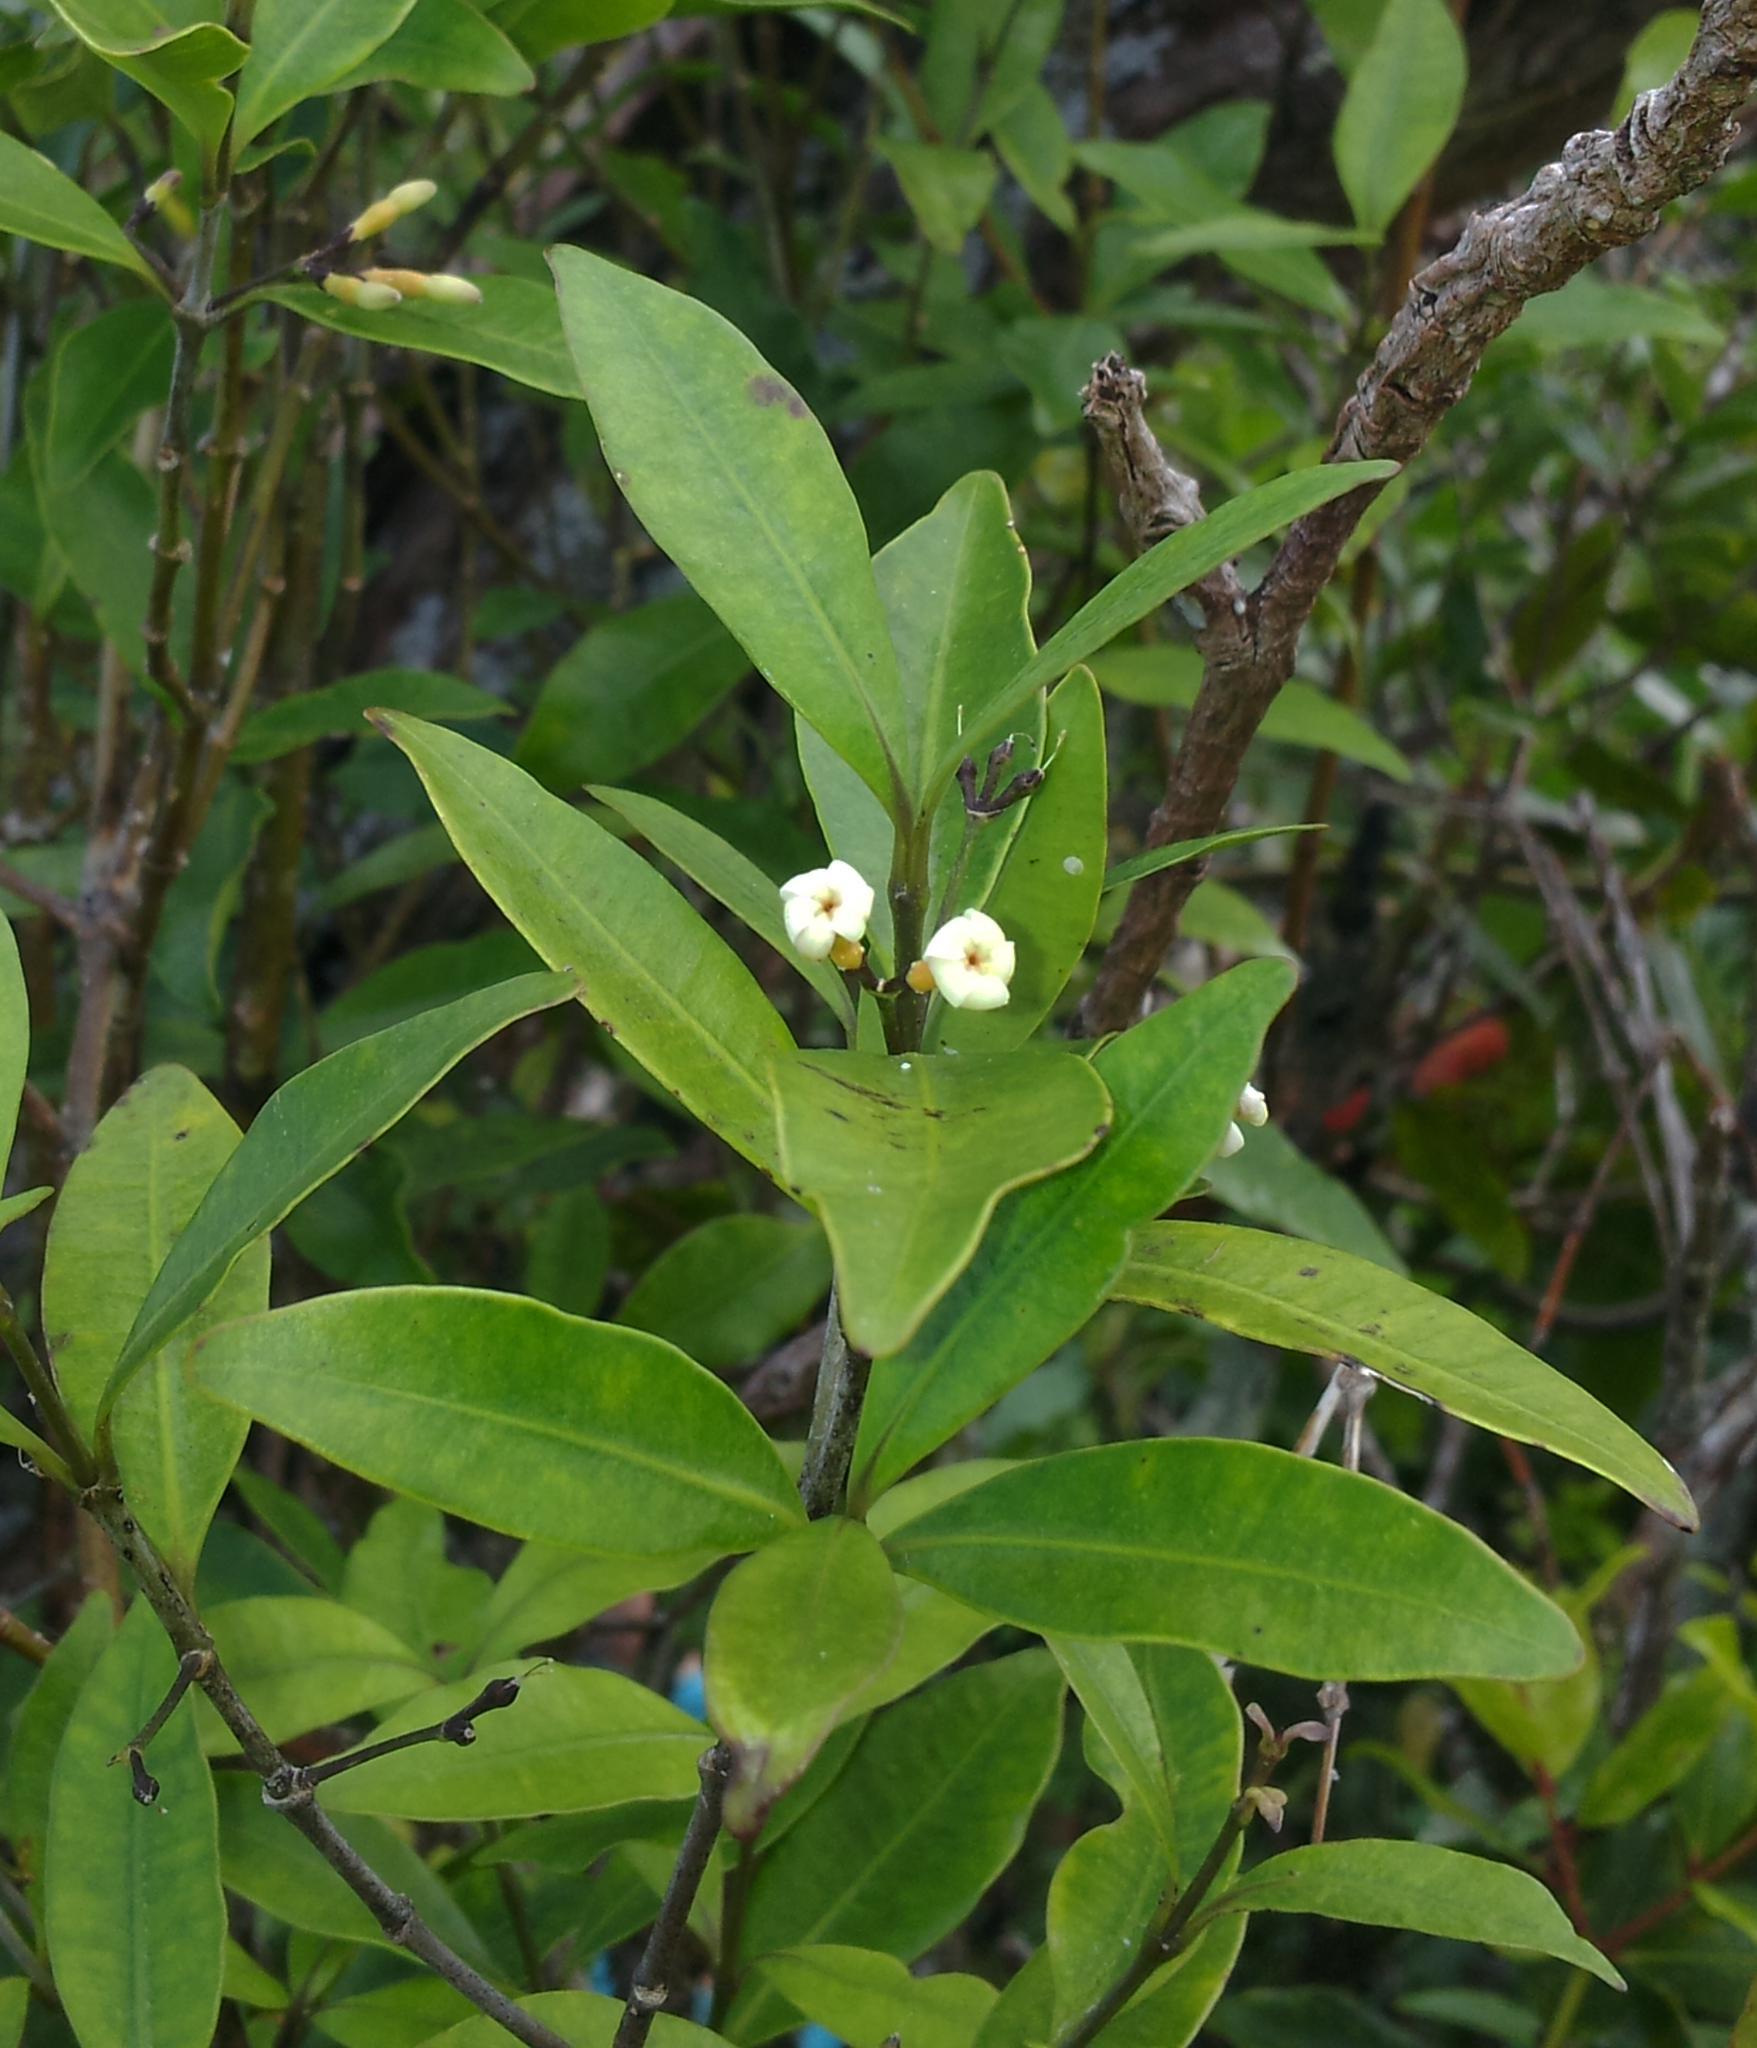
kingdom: Plantae
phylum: Tracheophyta
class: Magnoliopsida
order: Gentianales
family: Apocynaceae
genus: Alyxia
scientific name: Alyxia stellata
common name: Maile
